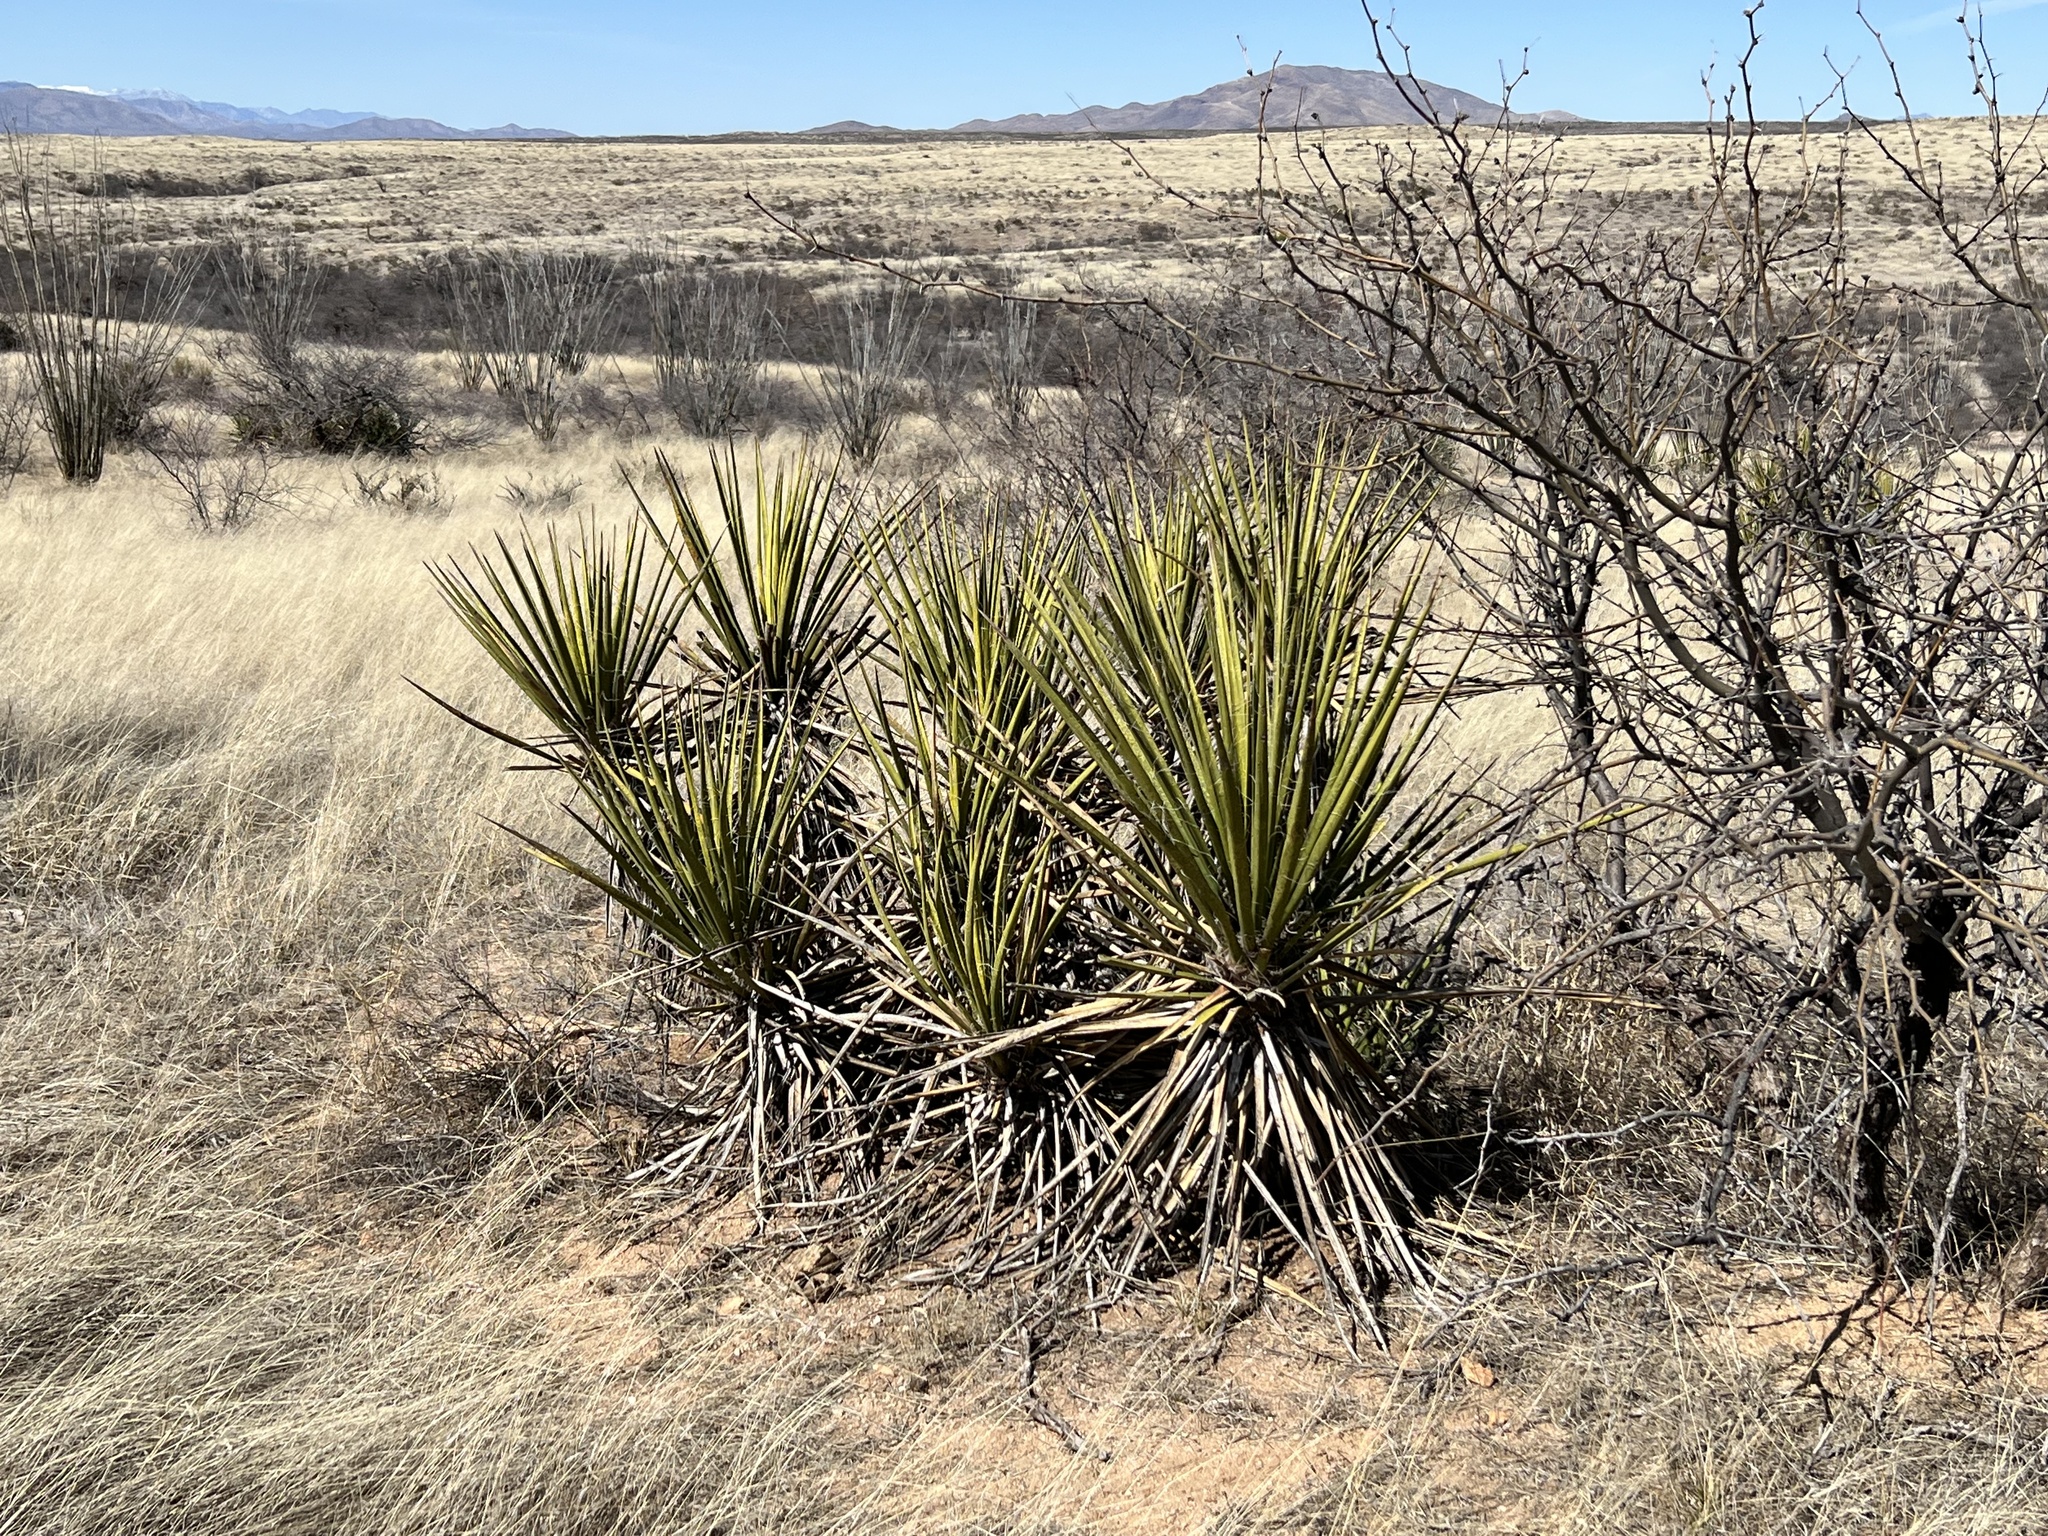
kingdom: Plantae
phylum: Tracheophyta
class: Liliopsida
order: Asparagales
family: Asparagaceae
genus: Yucca
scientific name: Yucca baccata
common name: Banana yucca
